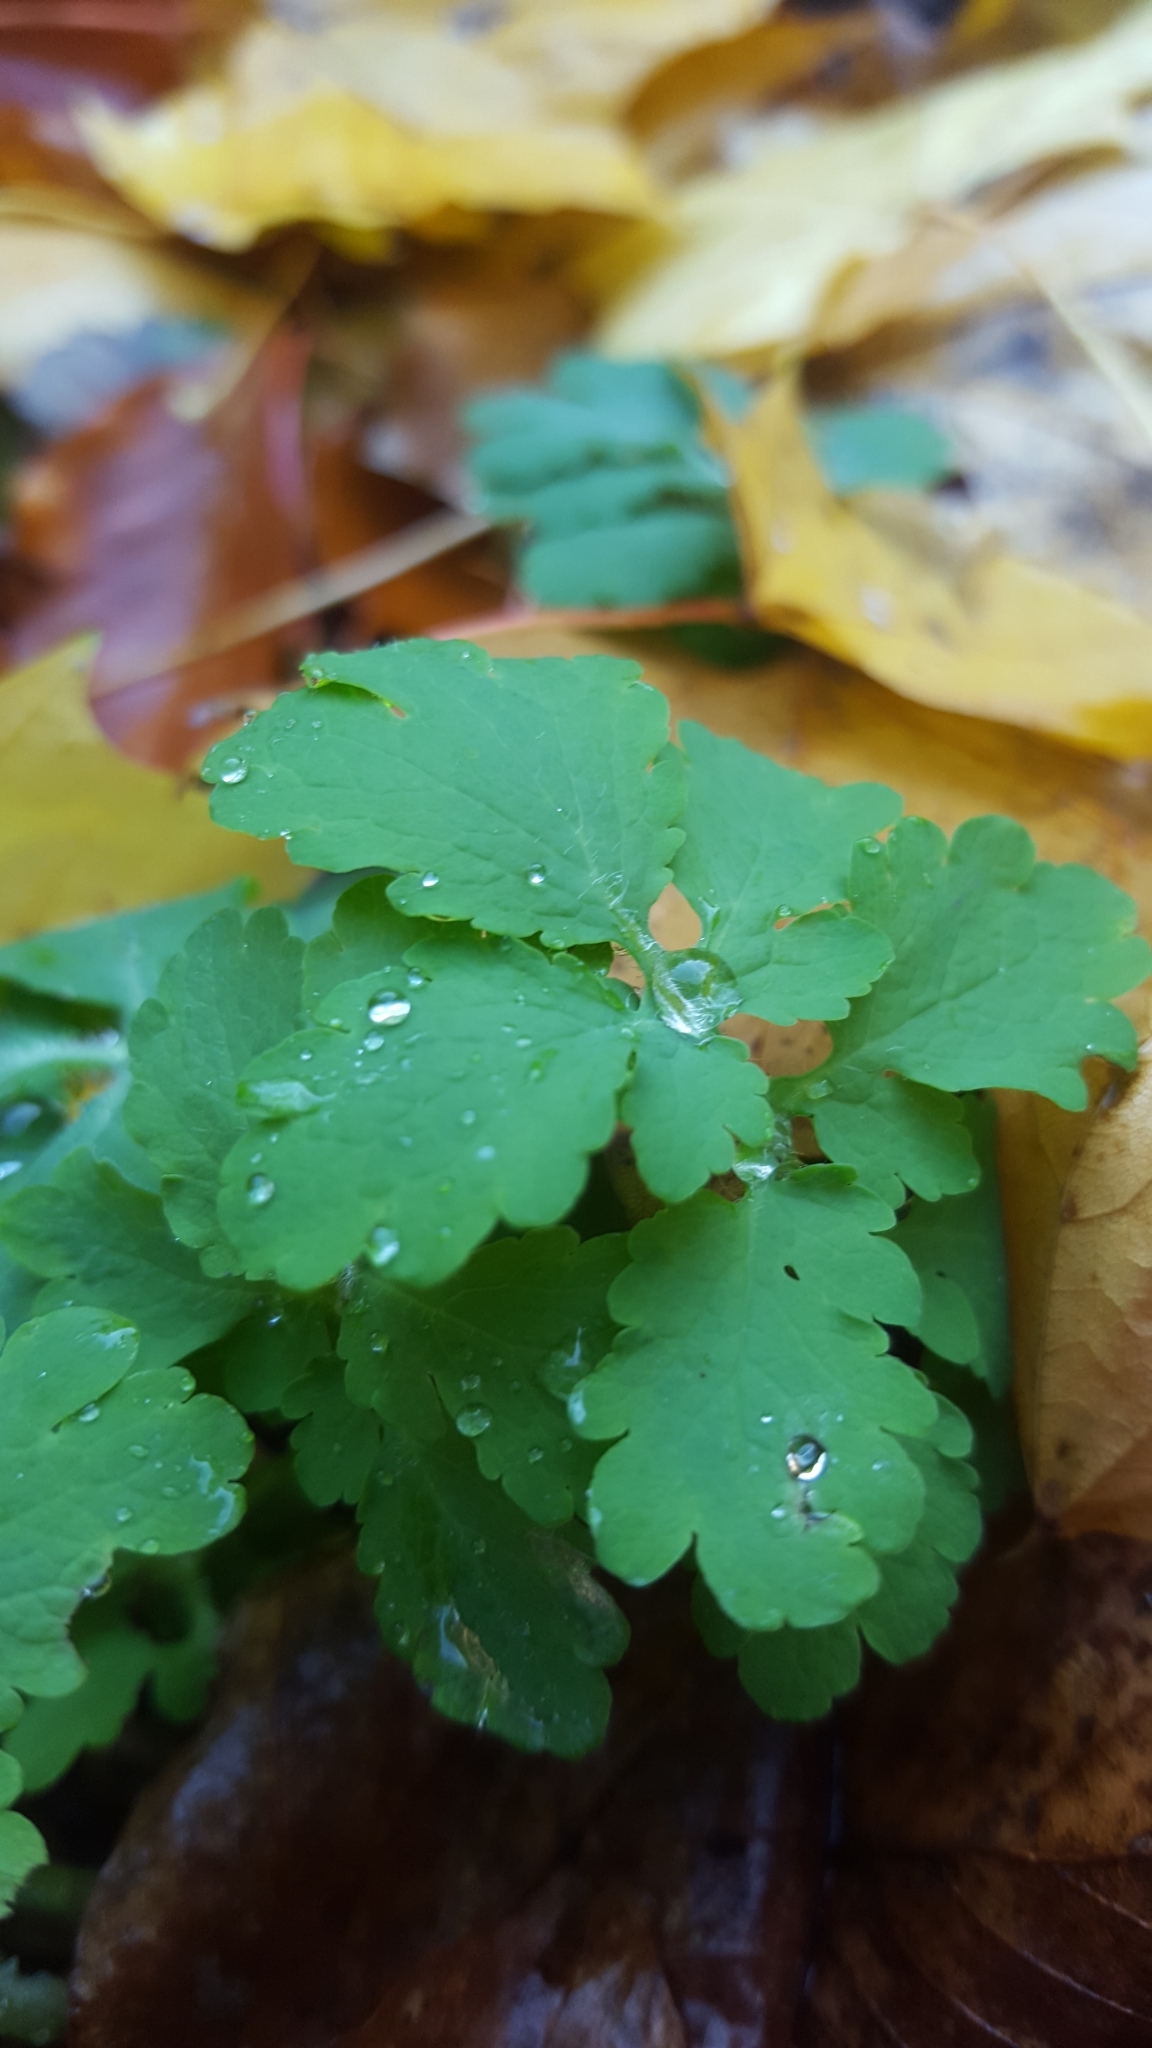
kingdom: Plantae
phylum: Tracheophyta
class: Magnoliopsida
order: Ranunculales
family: Papaveraceae
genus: Chelidonium
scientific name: Chelidonium majus
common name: Greater celandine
